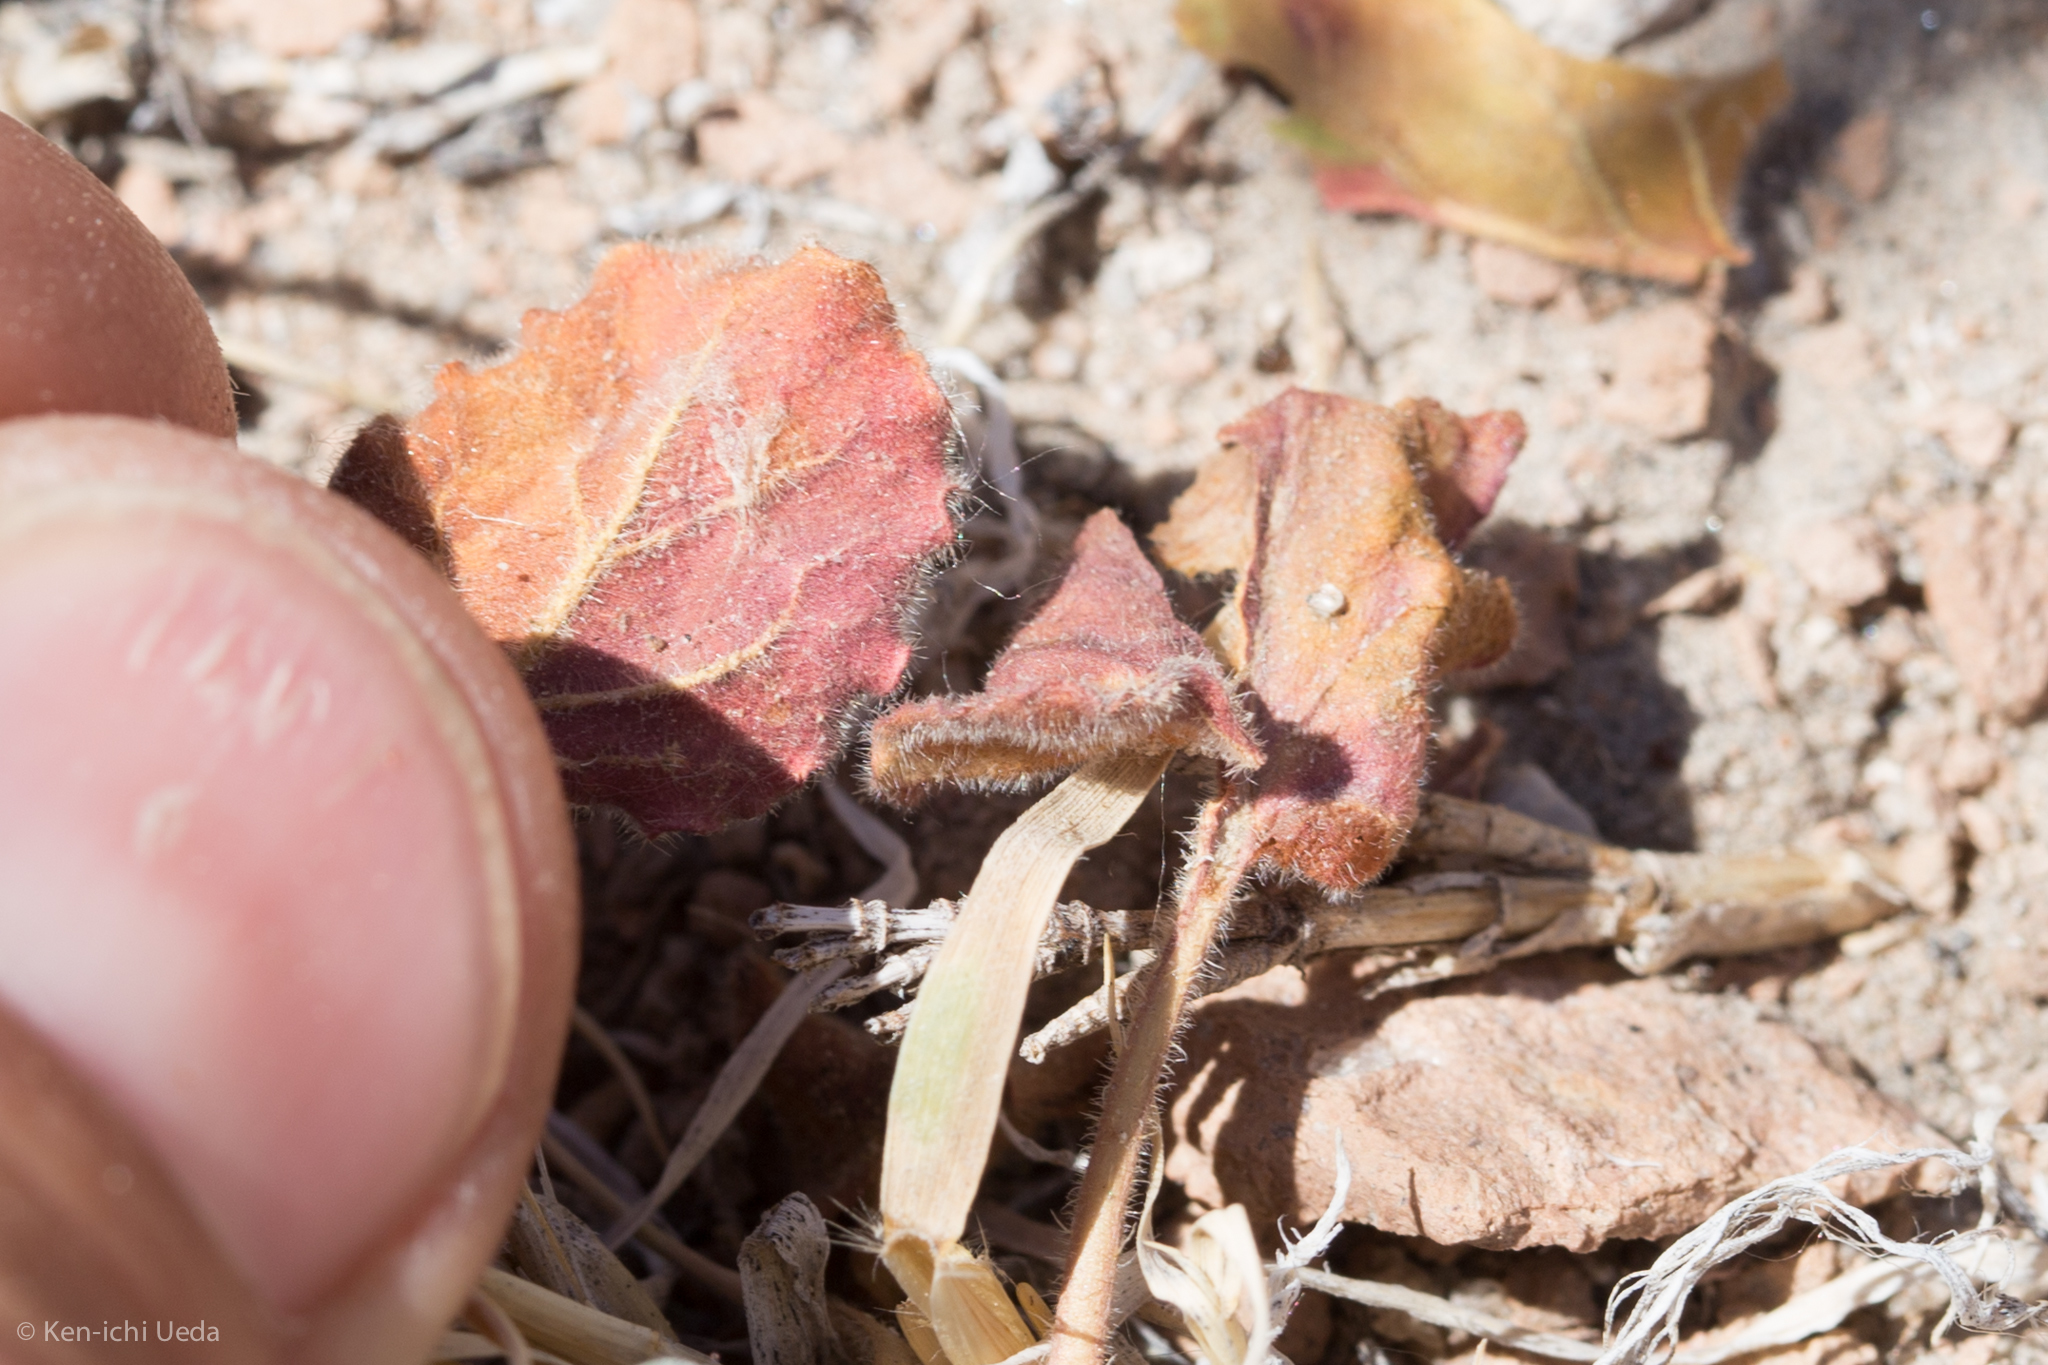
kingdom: Plantae
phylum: Tracheophyta
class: Magnoliopsida
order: Caryophyllales
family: Polygonaceae
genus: Eriogonum
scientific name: Eriogonum inflatum
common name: Desert trumpet
